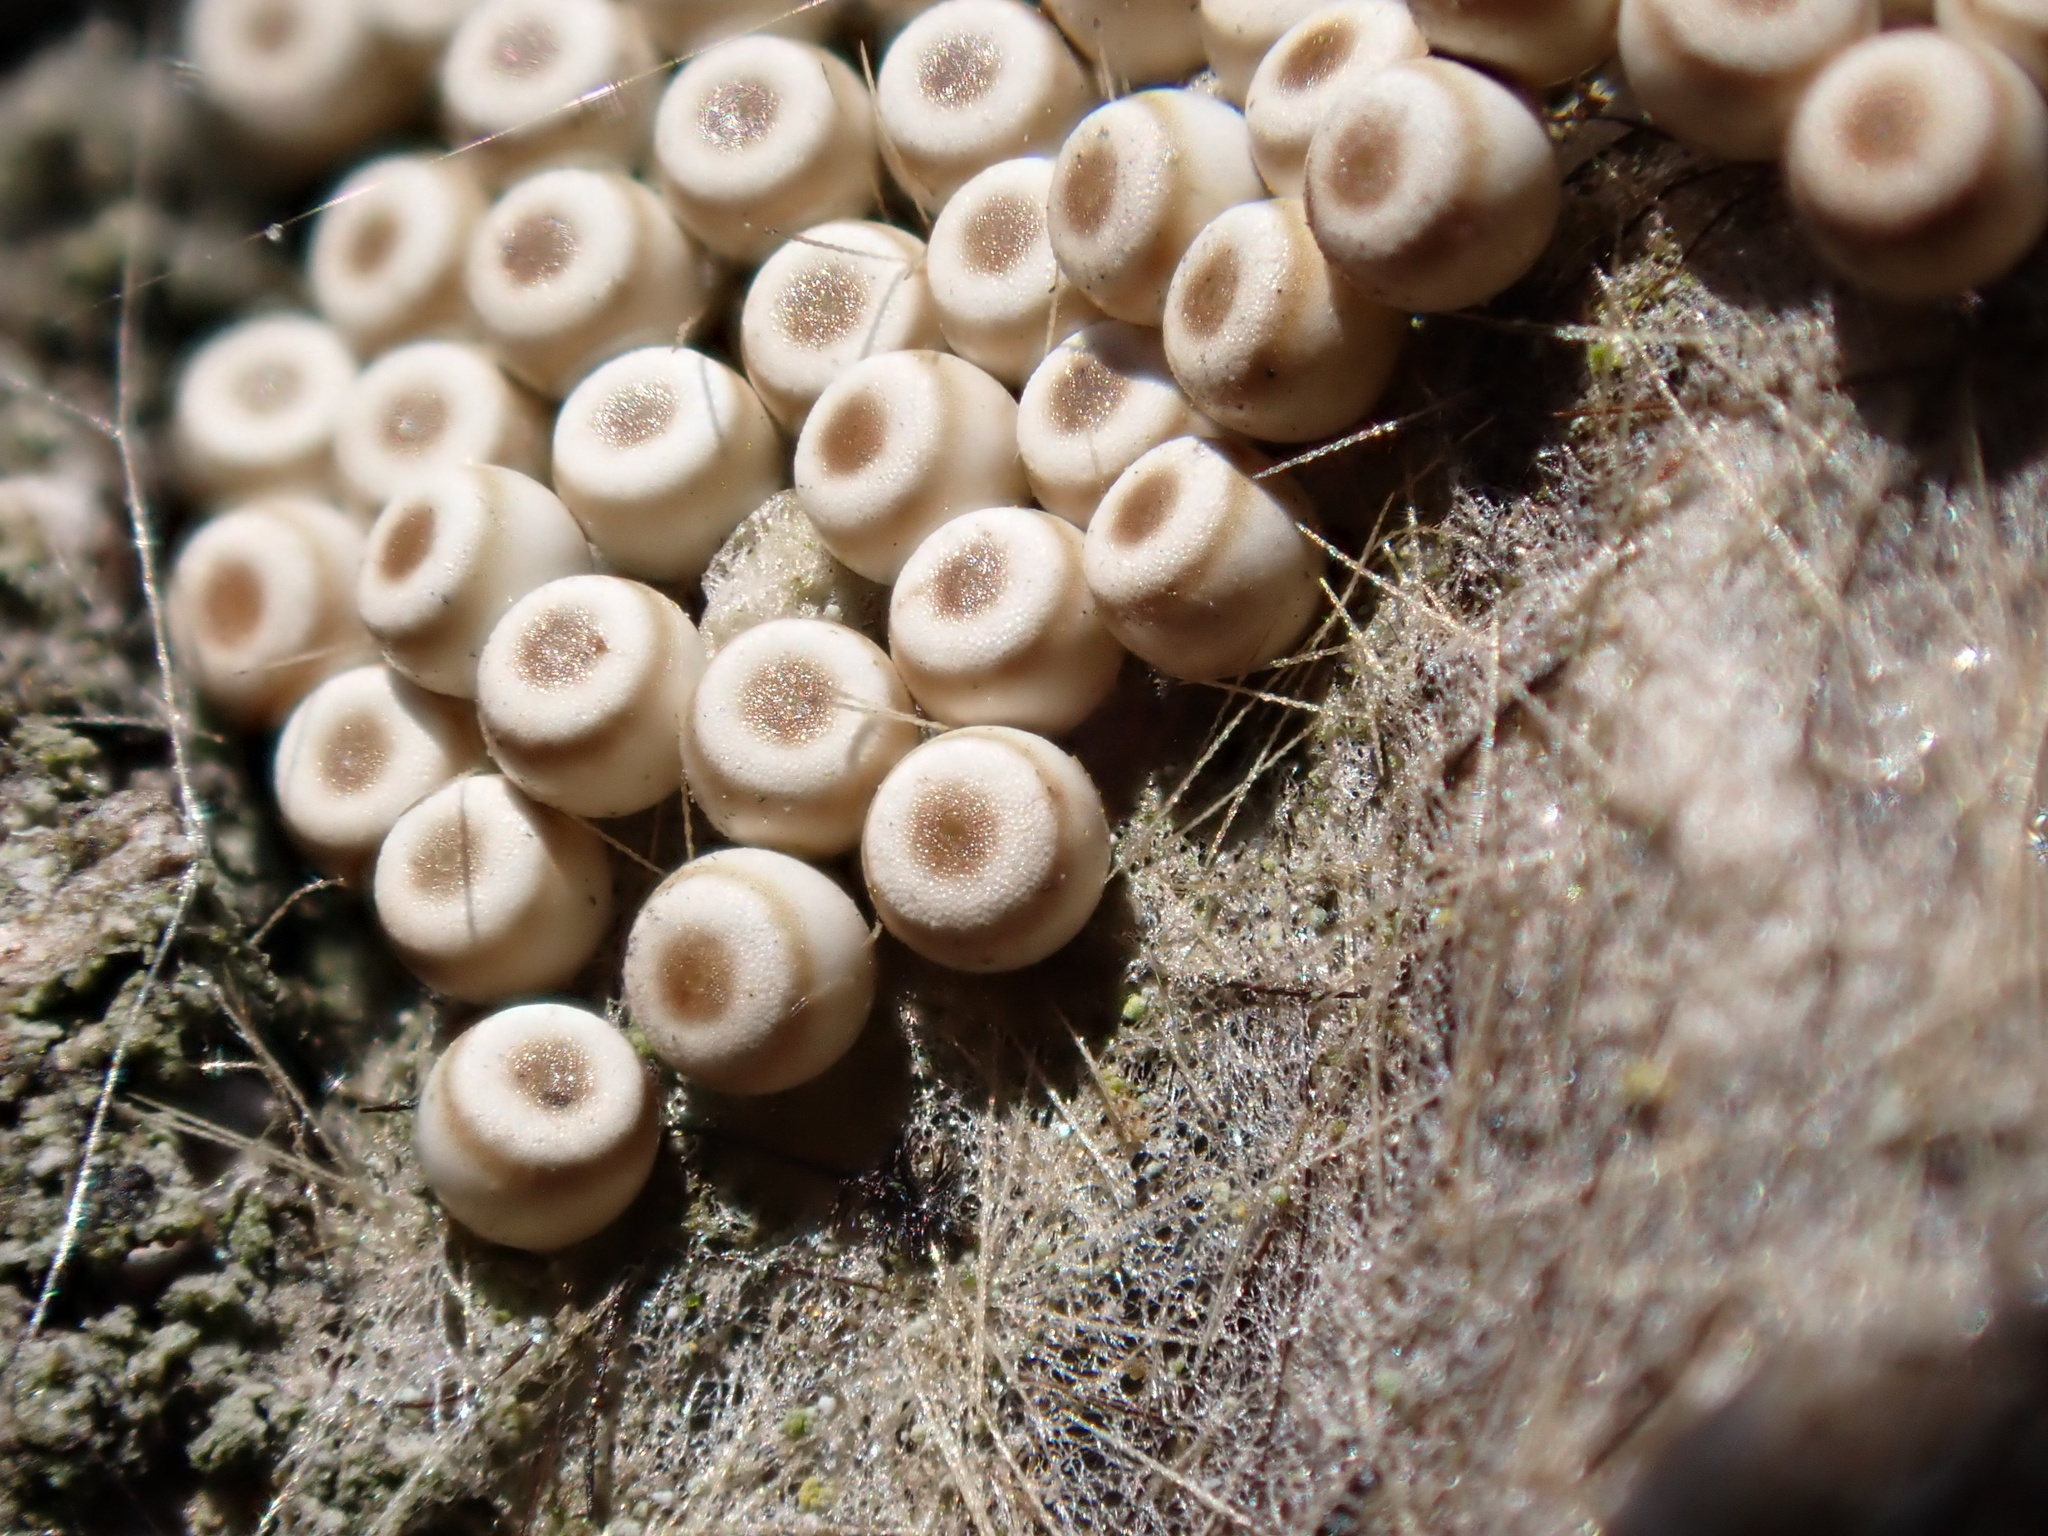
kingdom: Animalia
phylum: Arthropoda
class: Insecta
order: Lepidoptera
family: Erebidae
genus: Orgyia
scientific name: Orgyia antiqua
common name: Vapourer
